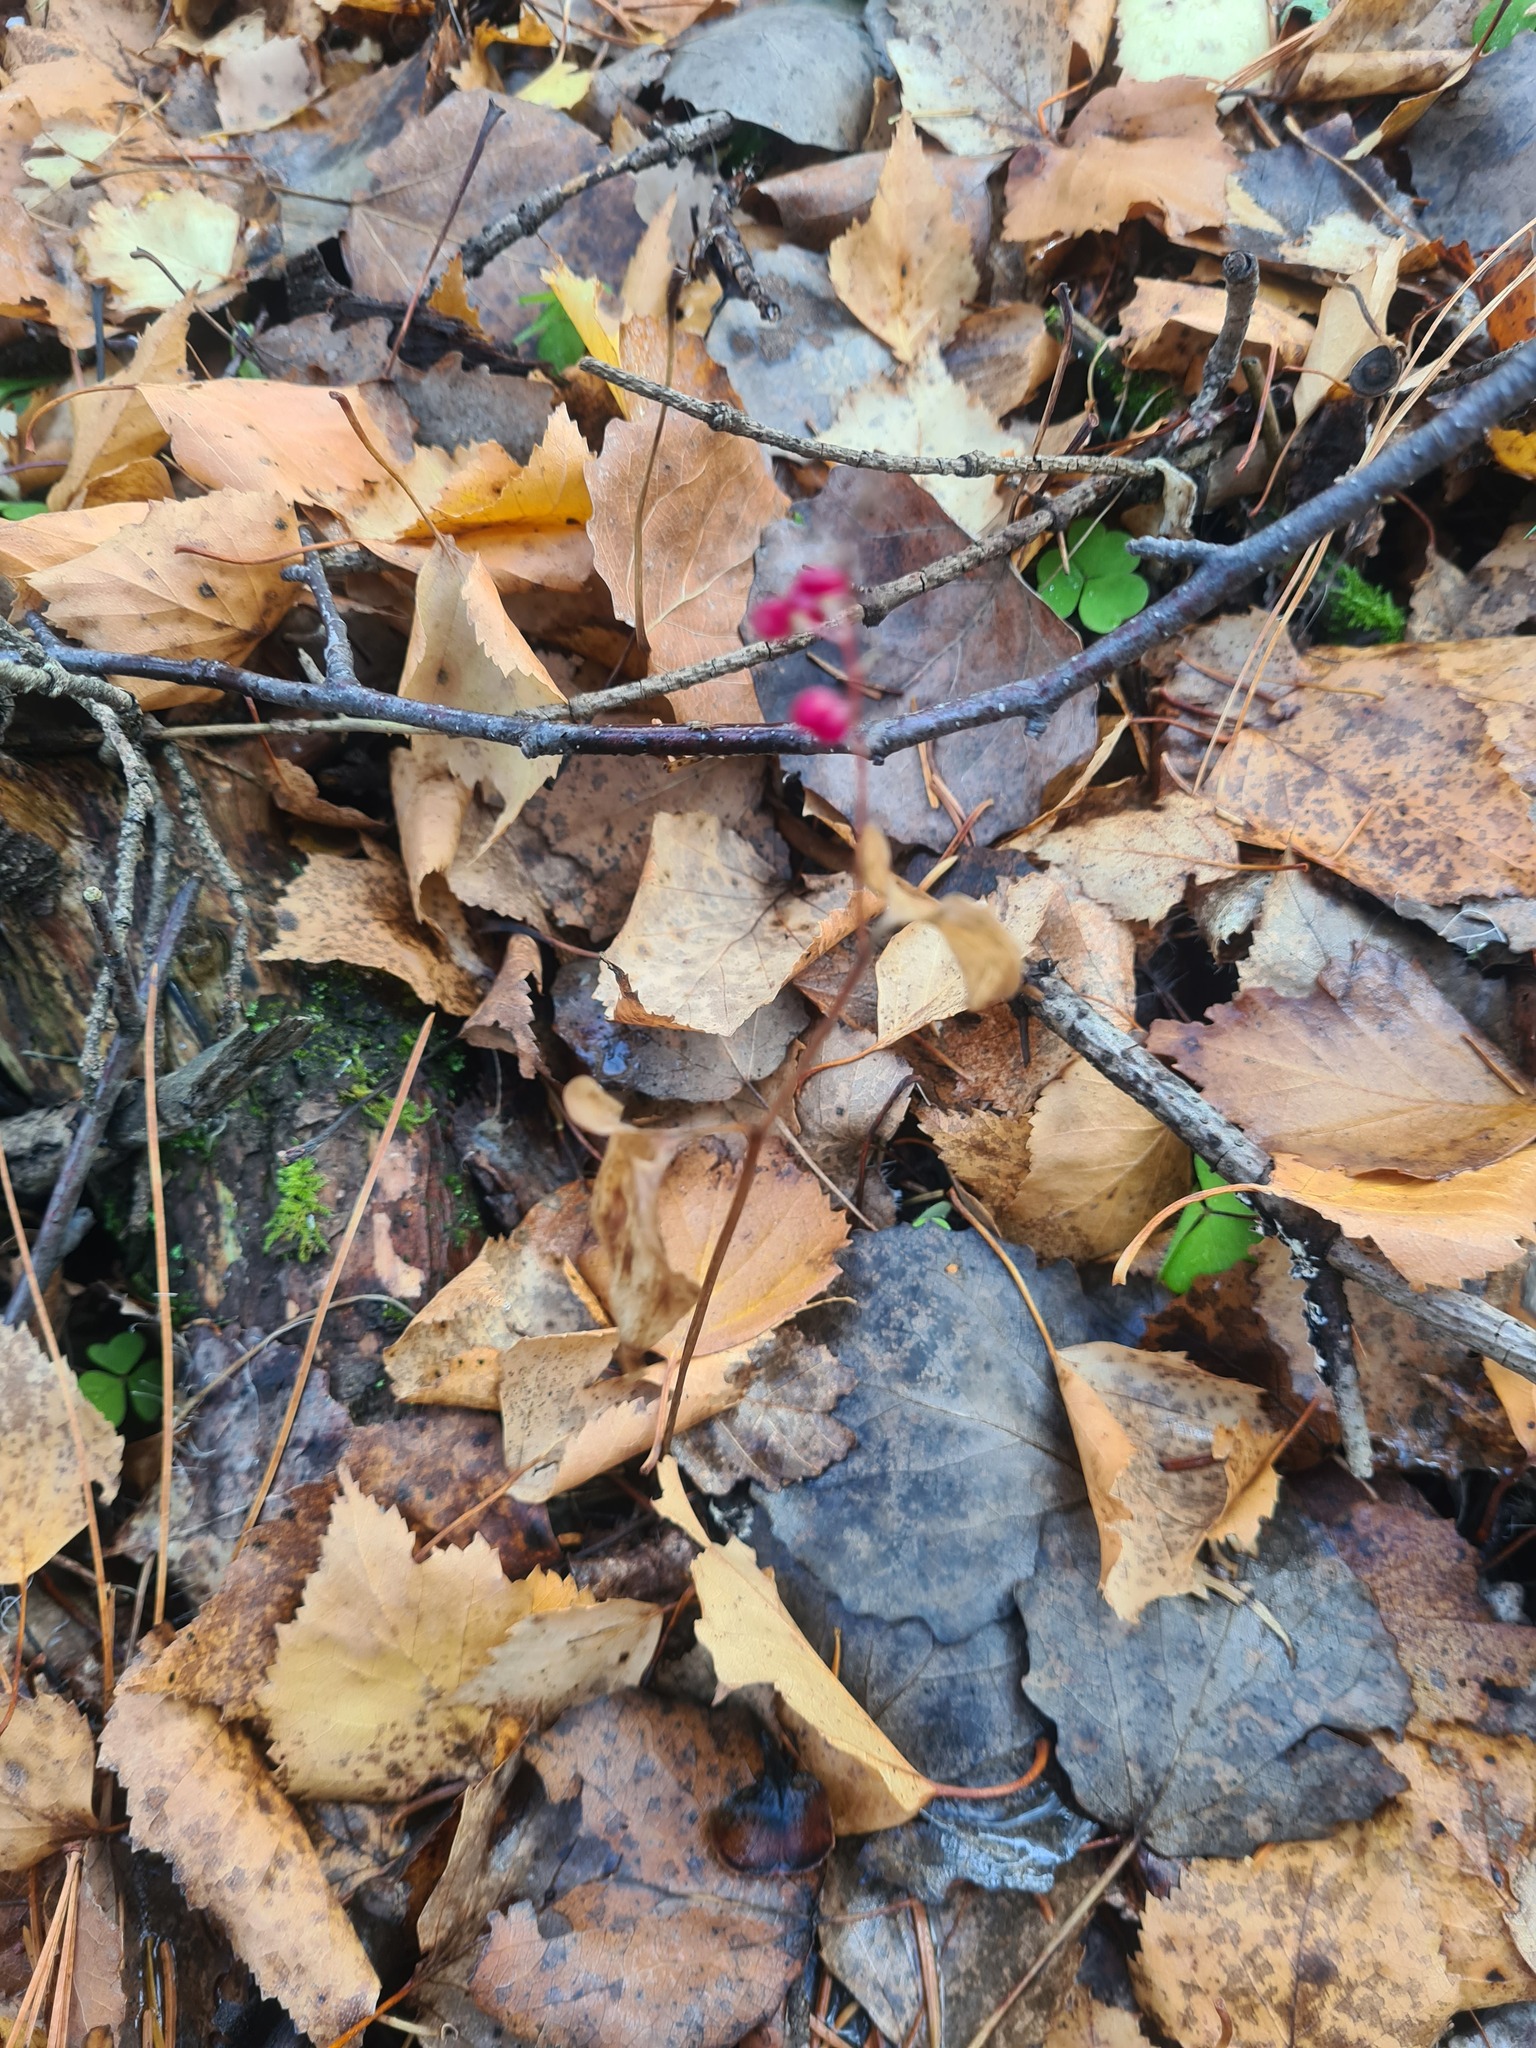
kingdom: Plantae
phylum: Tracheophyta
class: Liliopsida
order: Asparagales
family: Asparagaceae
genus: Maianthemum
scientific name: Maianthemum bifolium
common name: May lily
